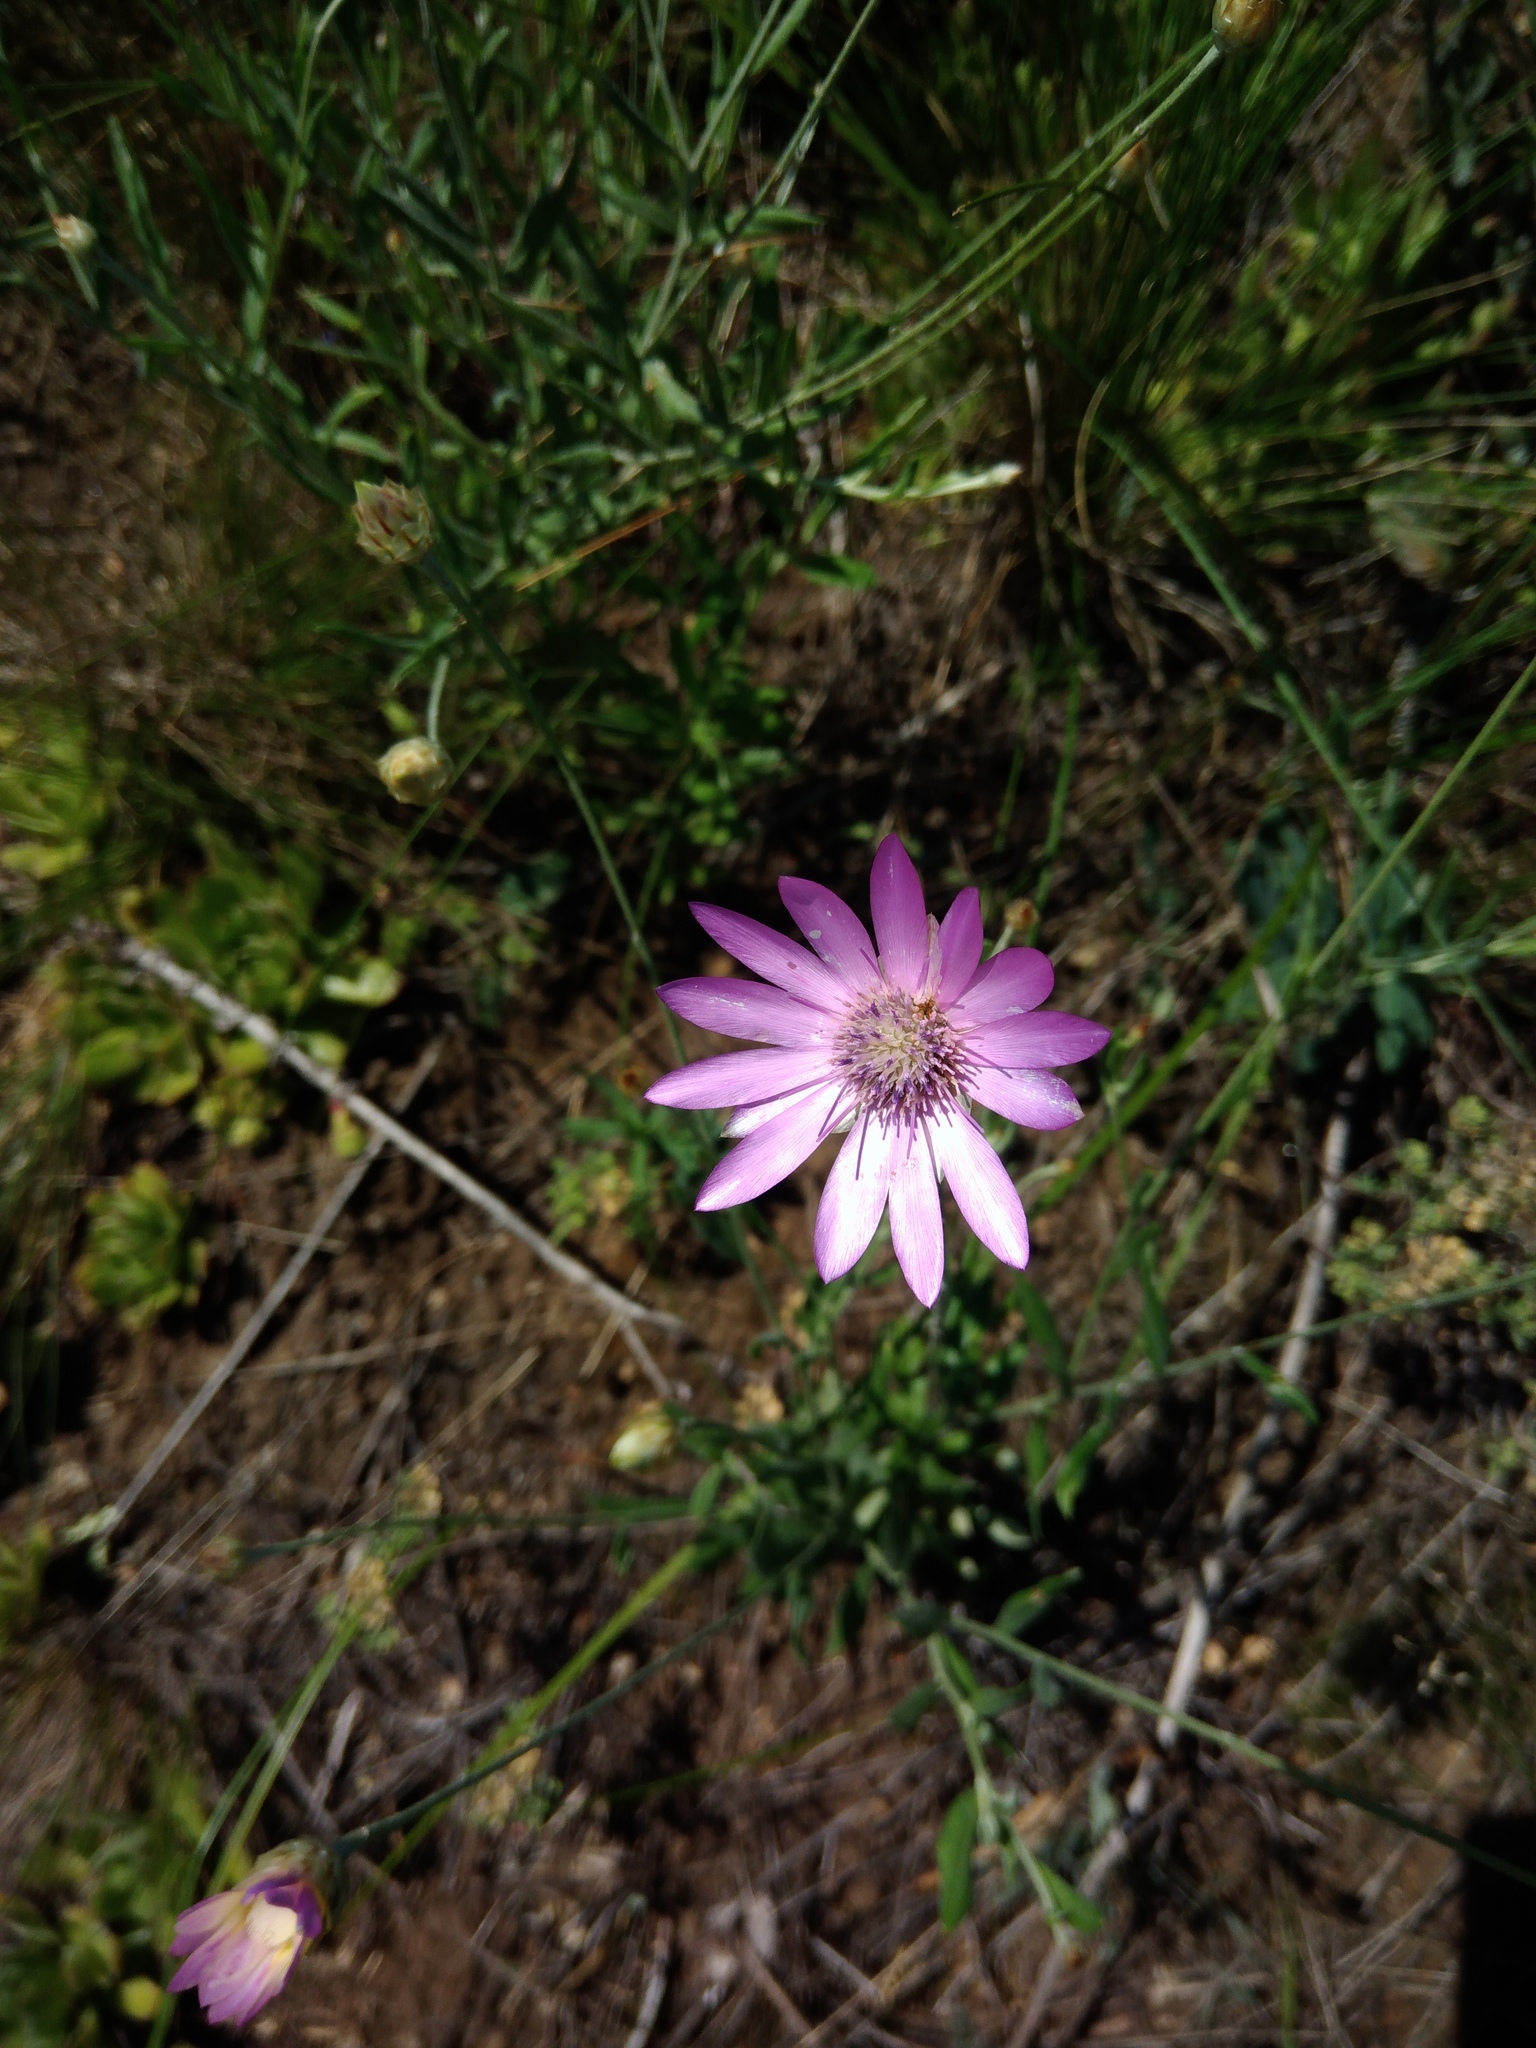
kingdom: Plantae
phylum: Tracheophyta
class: Magnoliopsida
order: Asterales
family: Asteraceae
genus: Xeranthemum
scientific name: Xeranthemum annuum
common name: Immortelle
